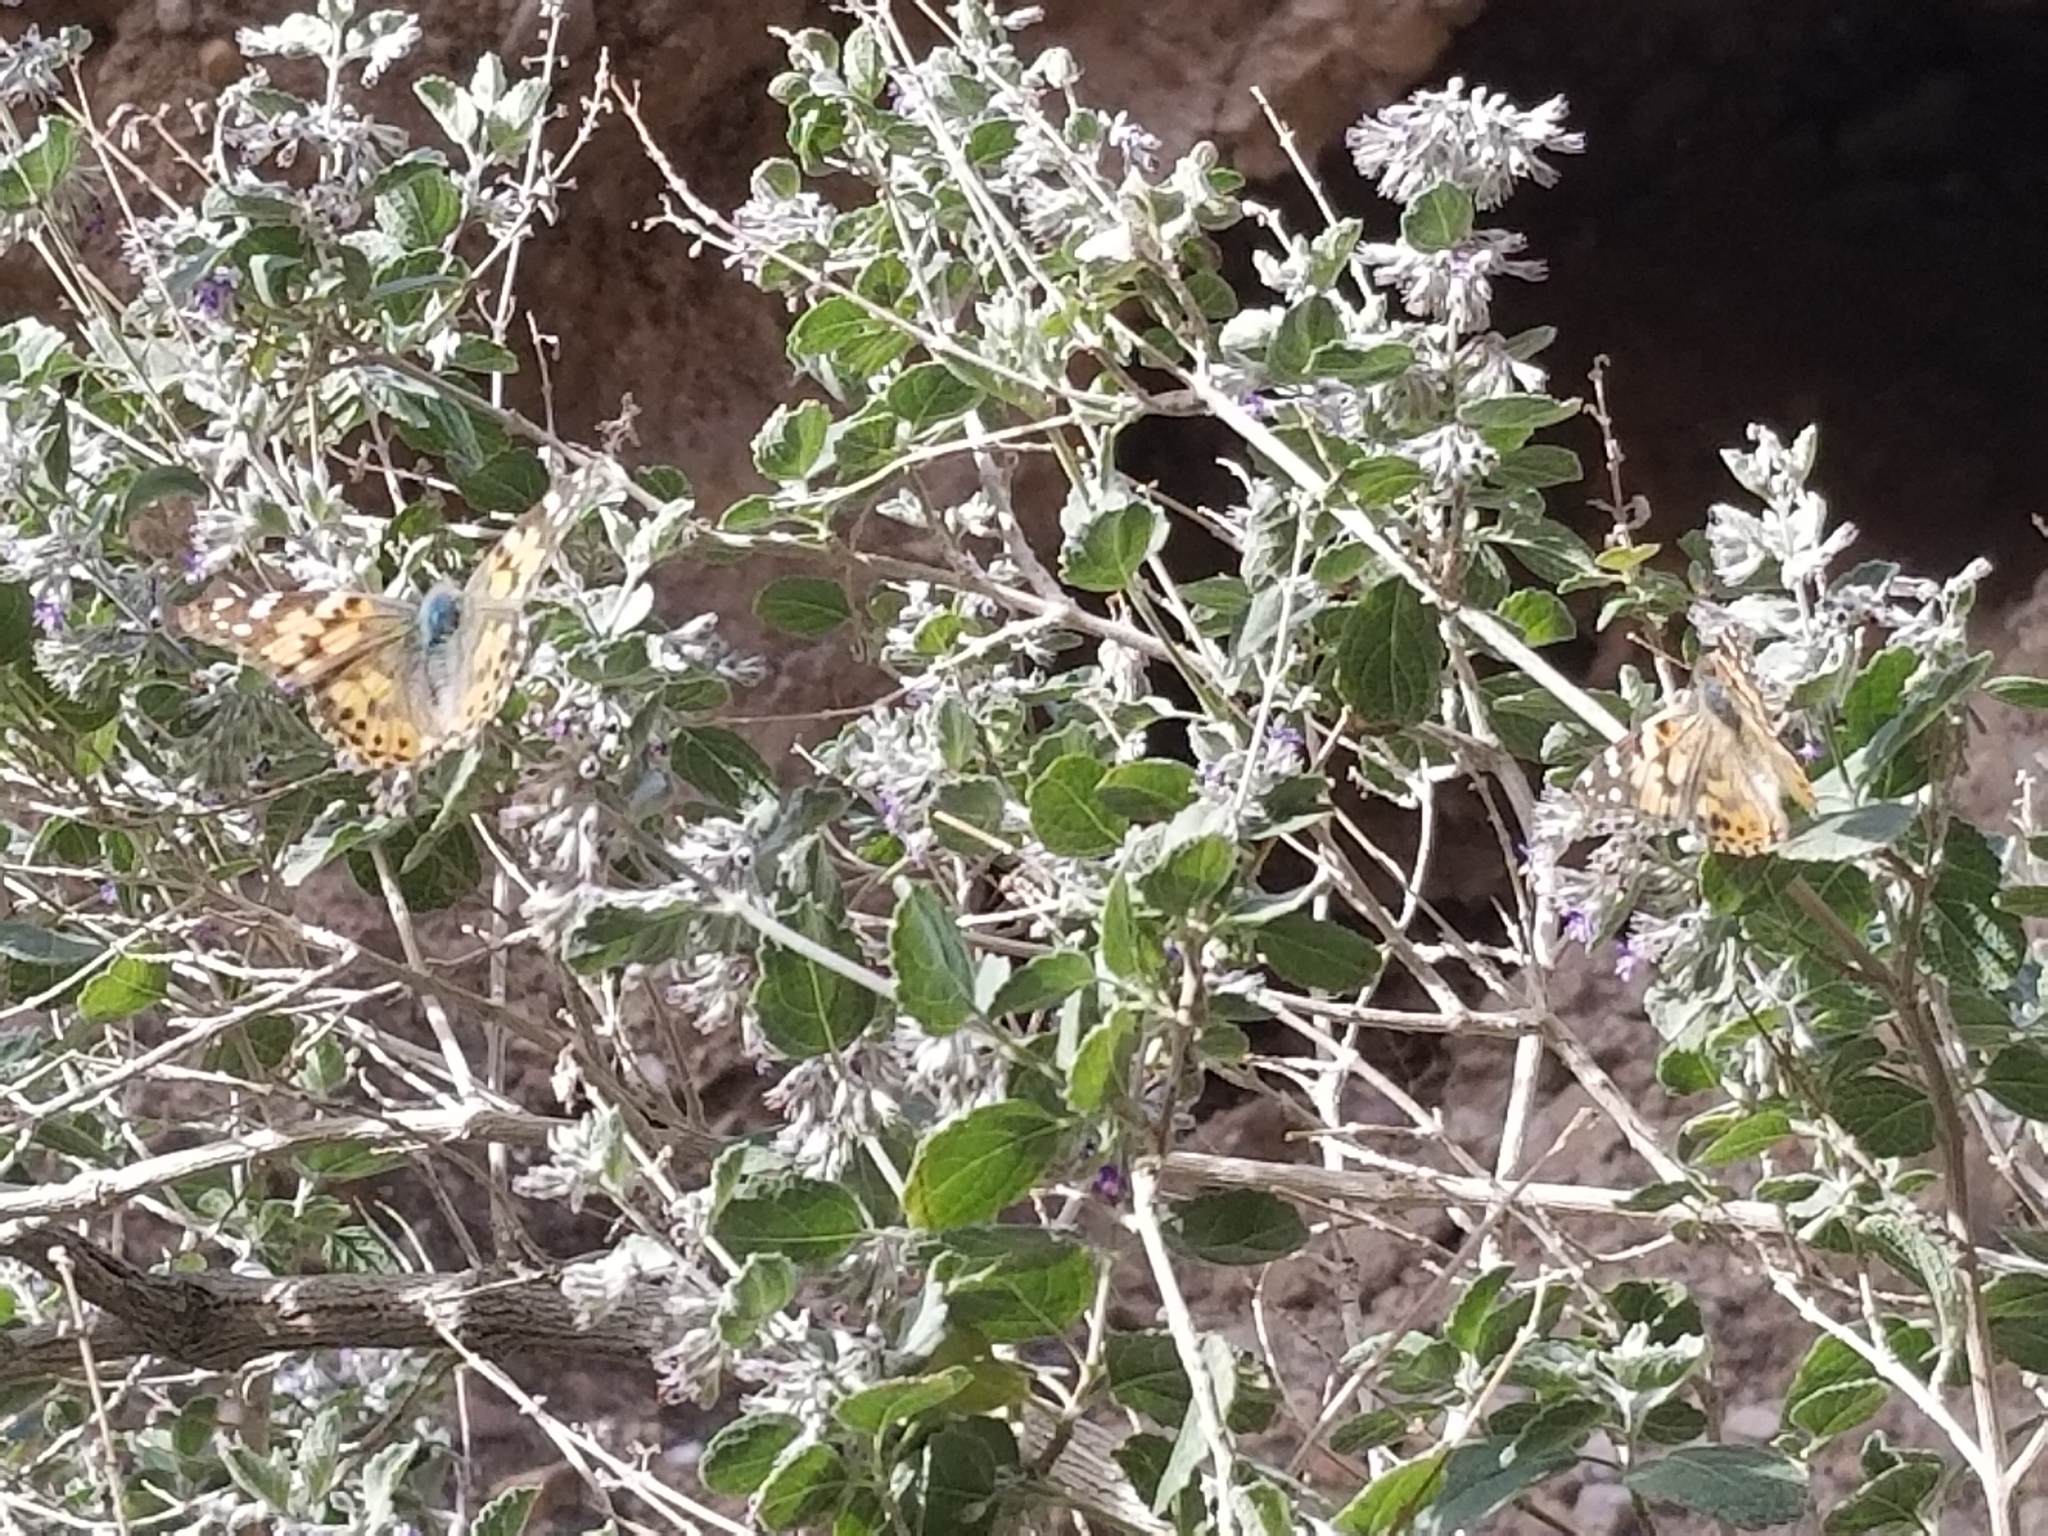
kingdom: Plantae
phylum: Tracheophyta
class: Magnoliopsida
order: Lamiales
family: Lamiaceae
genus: Condea
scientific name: Condea emoryi
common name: Chia
